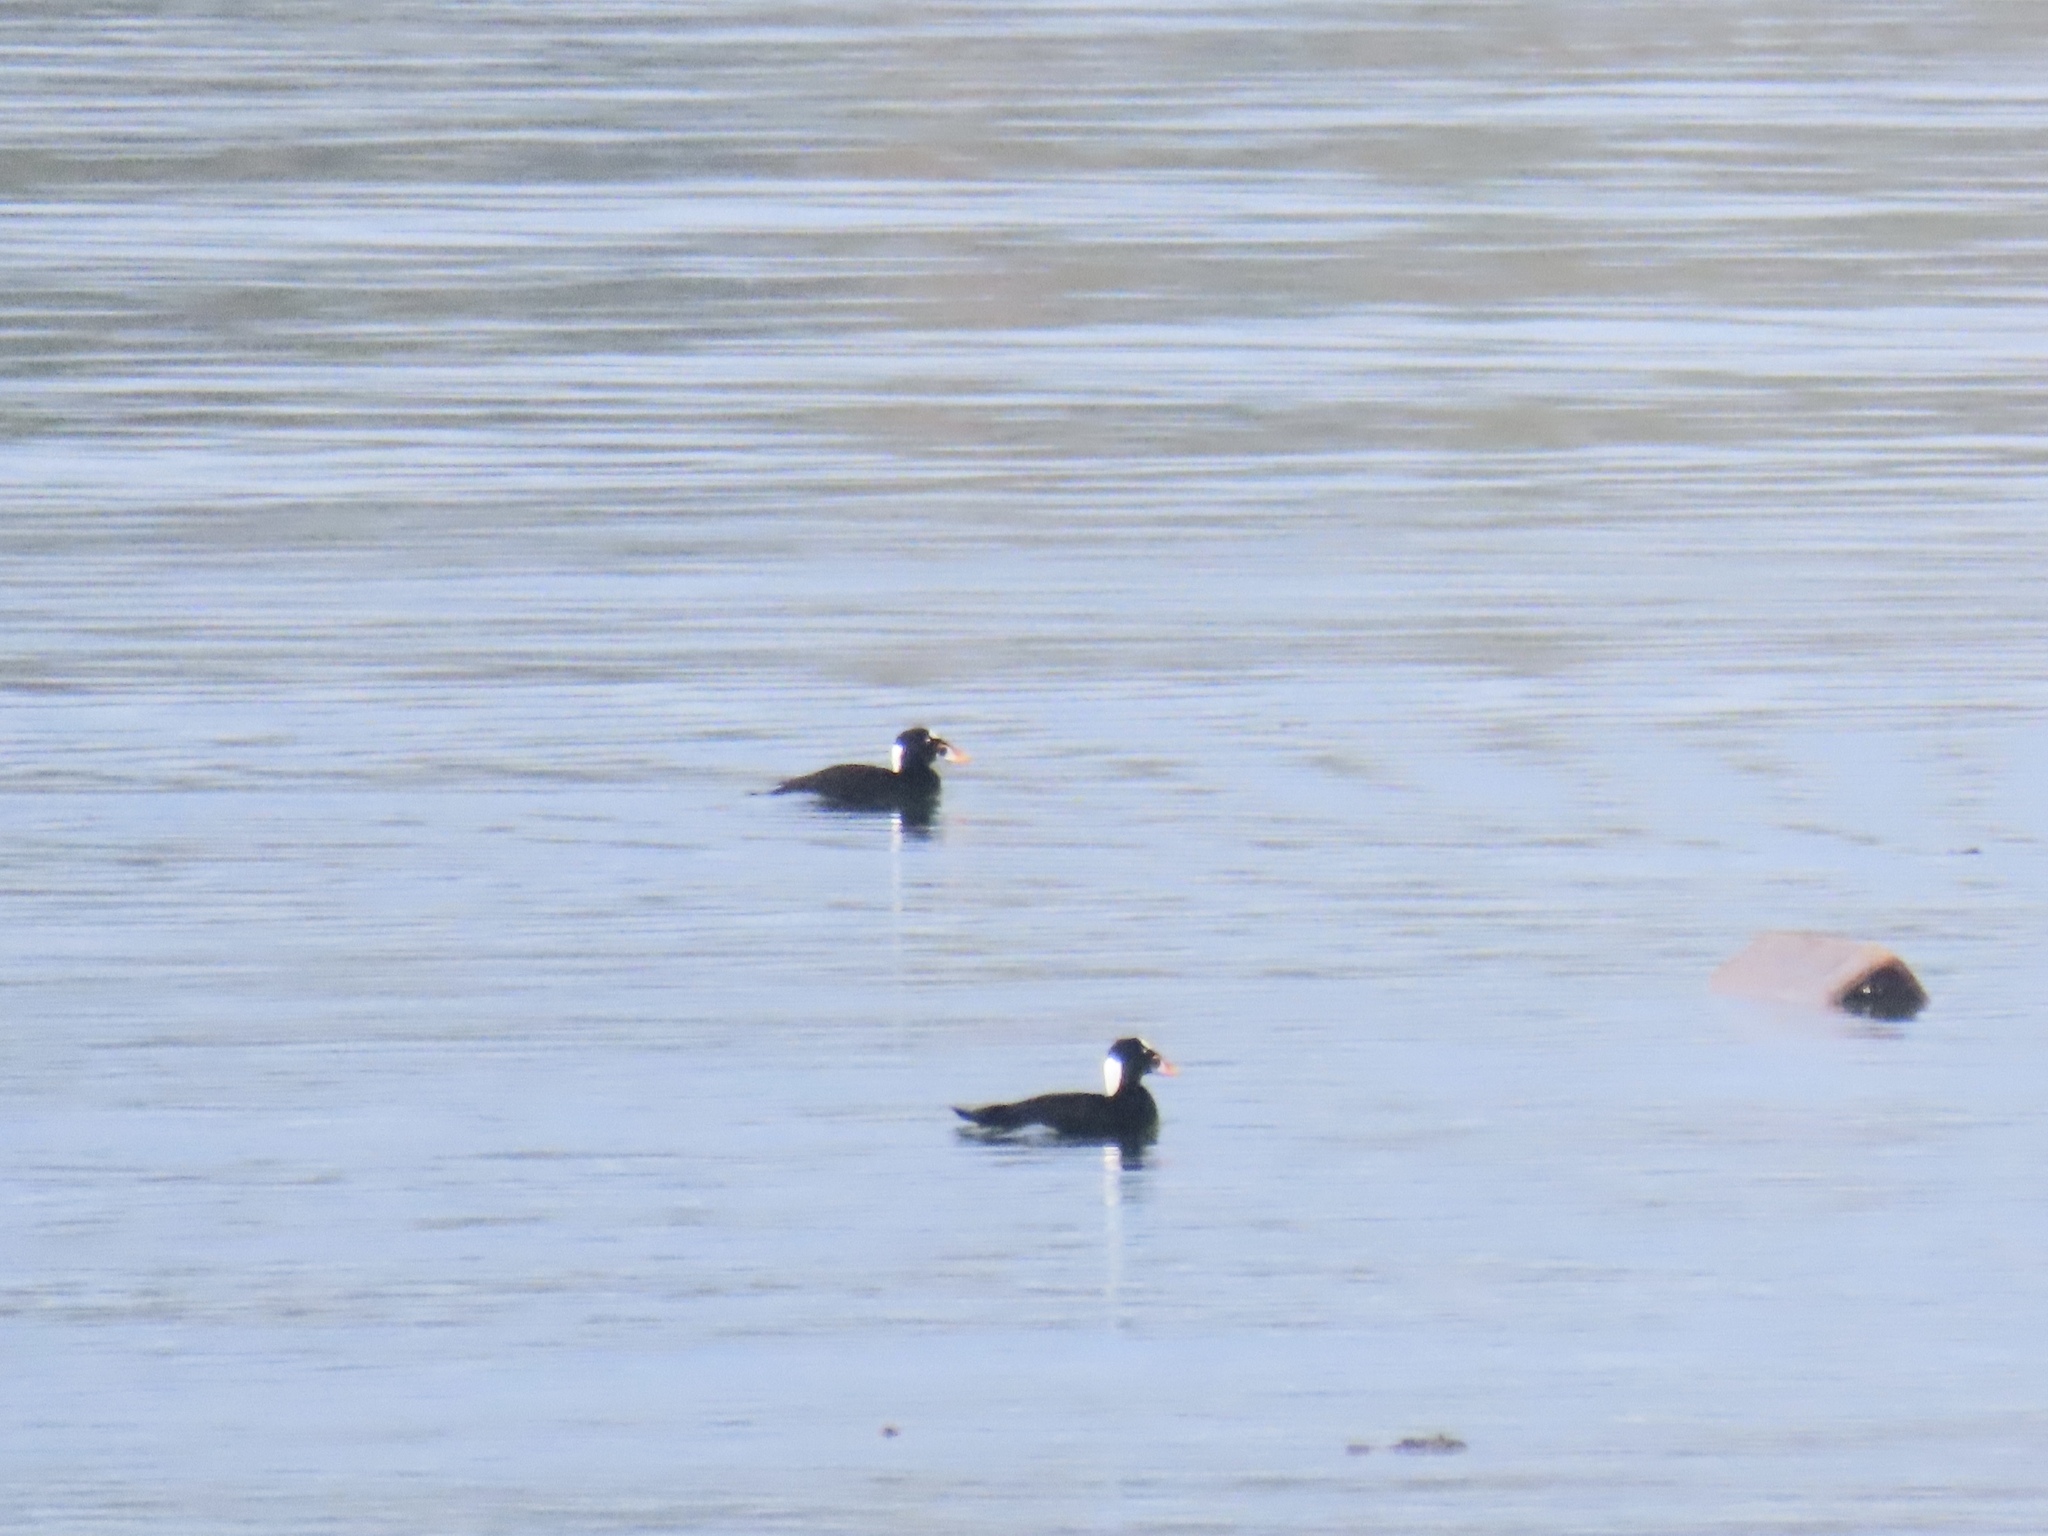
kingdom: Animalia
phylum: Chordata
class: Aves
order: Anseriformes
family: Anatidae
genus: Melanitta
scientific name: Melanitta perspicillata
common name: Surf scoter
